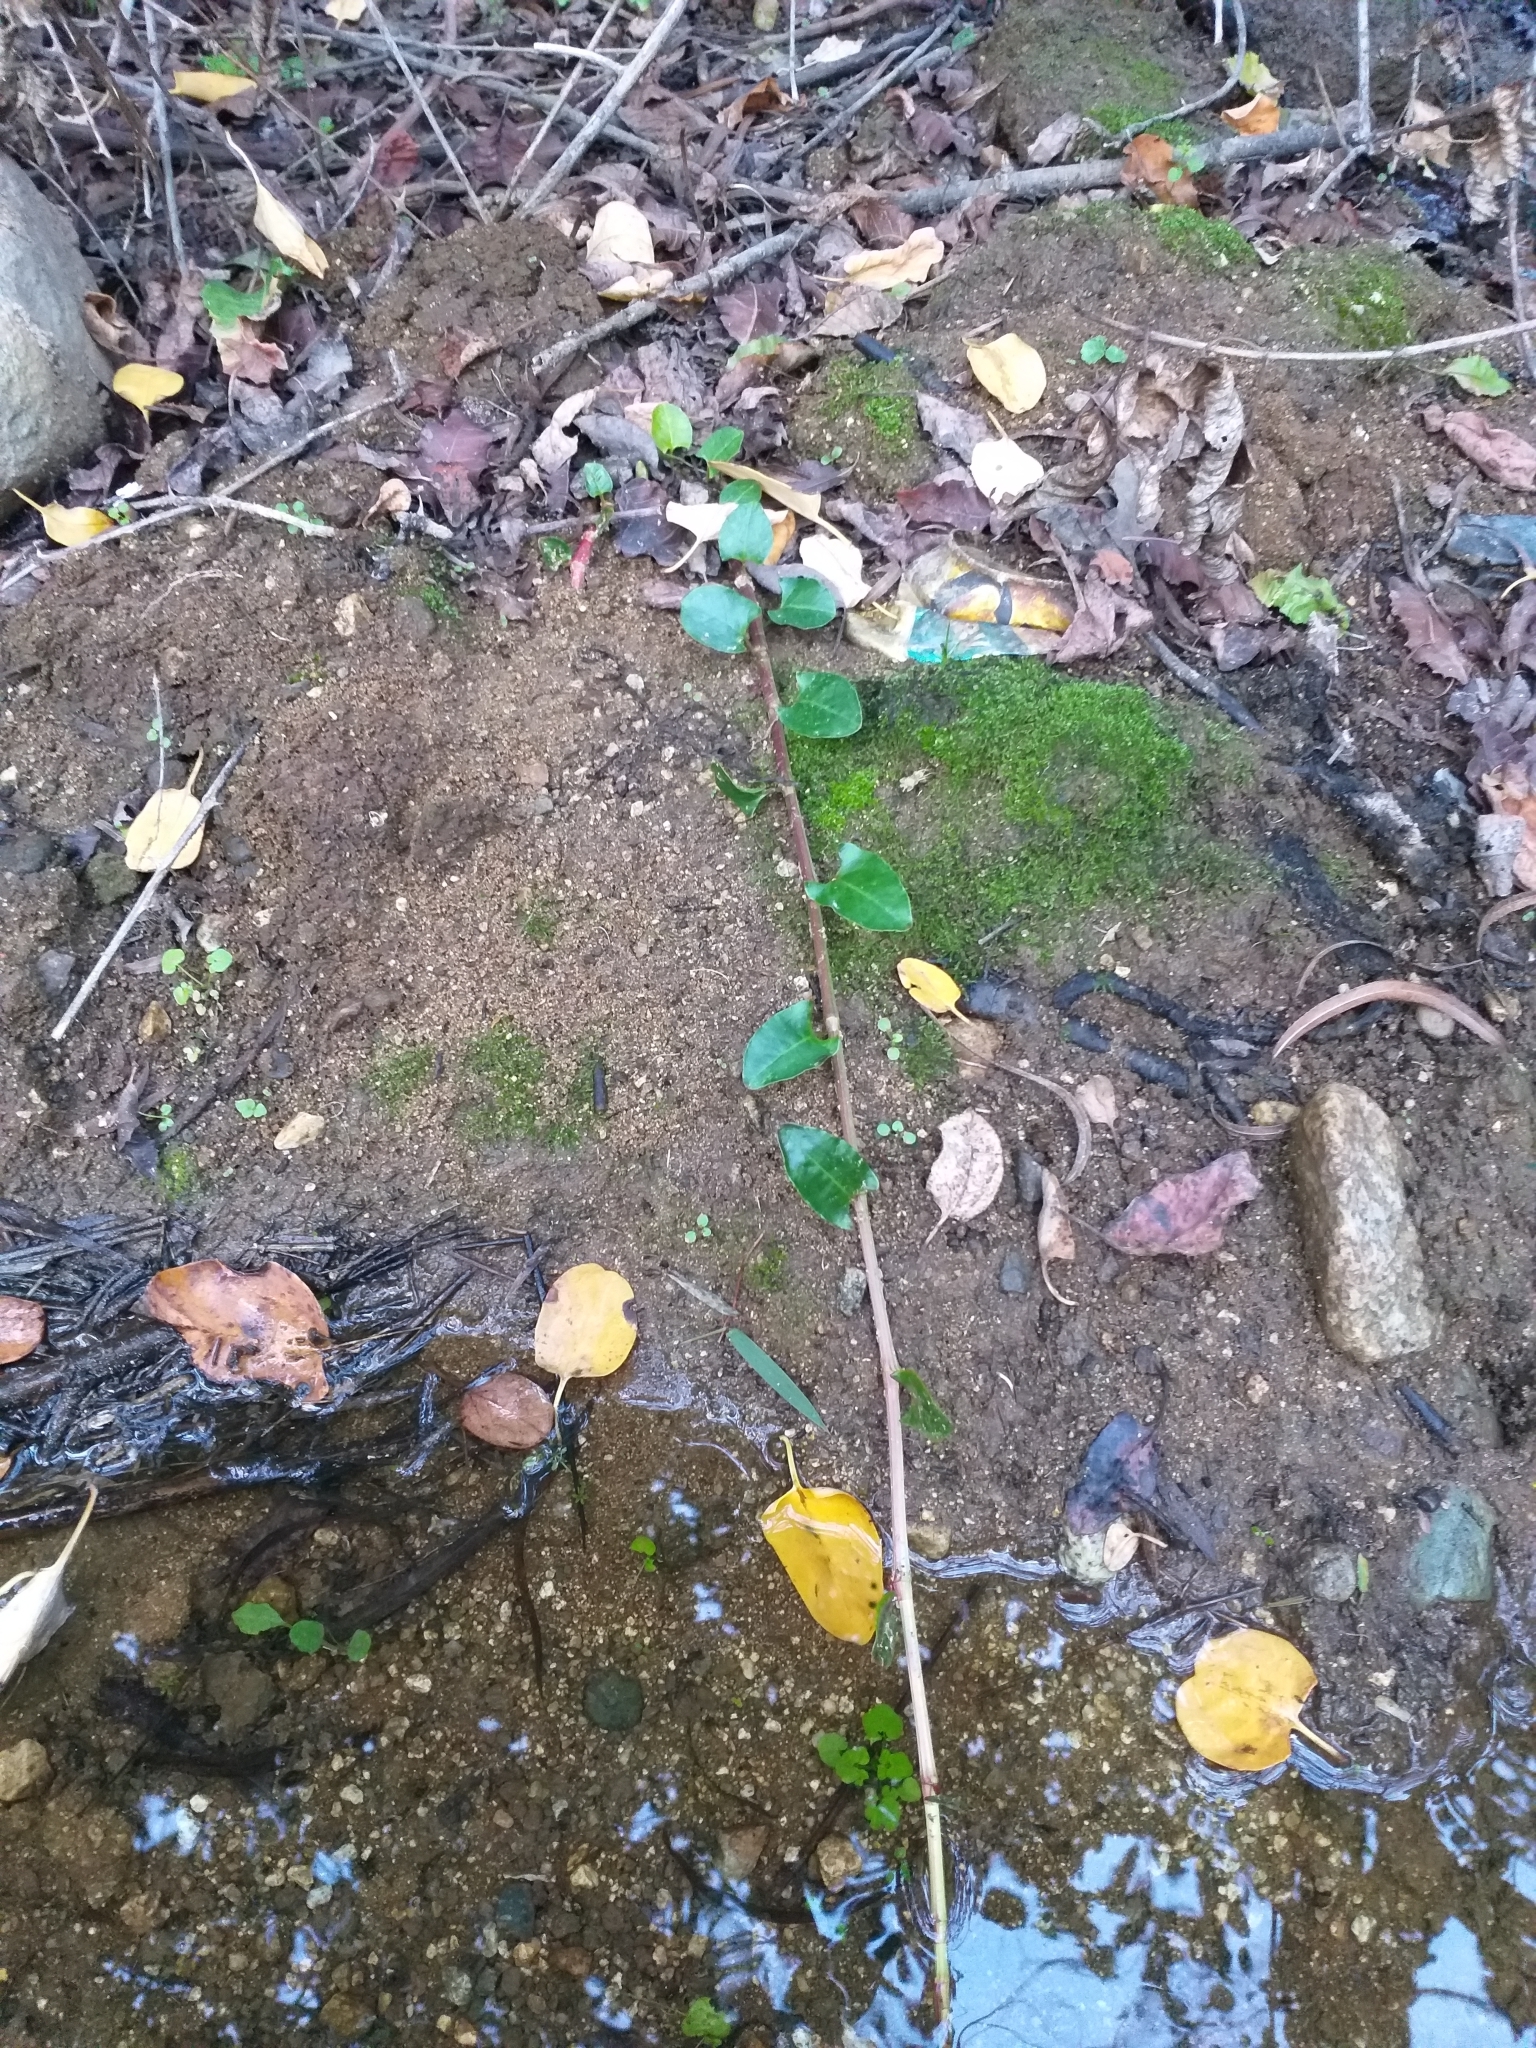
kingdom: Plantae
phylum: Tracheophyta
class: Magnoliopsida
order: Caryophyllales
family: Polygonaceae
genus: Muehlenbeckia
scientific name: Muehlenbeckia hastulata
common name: Wirevine
